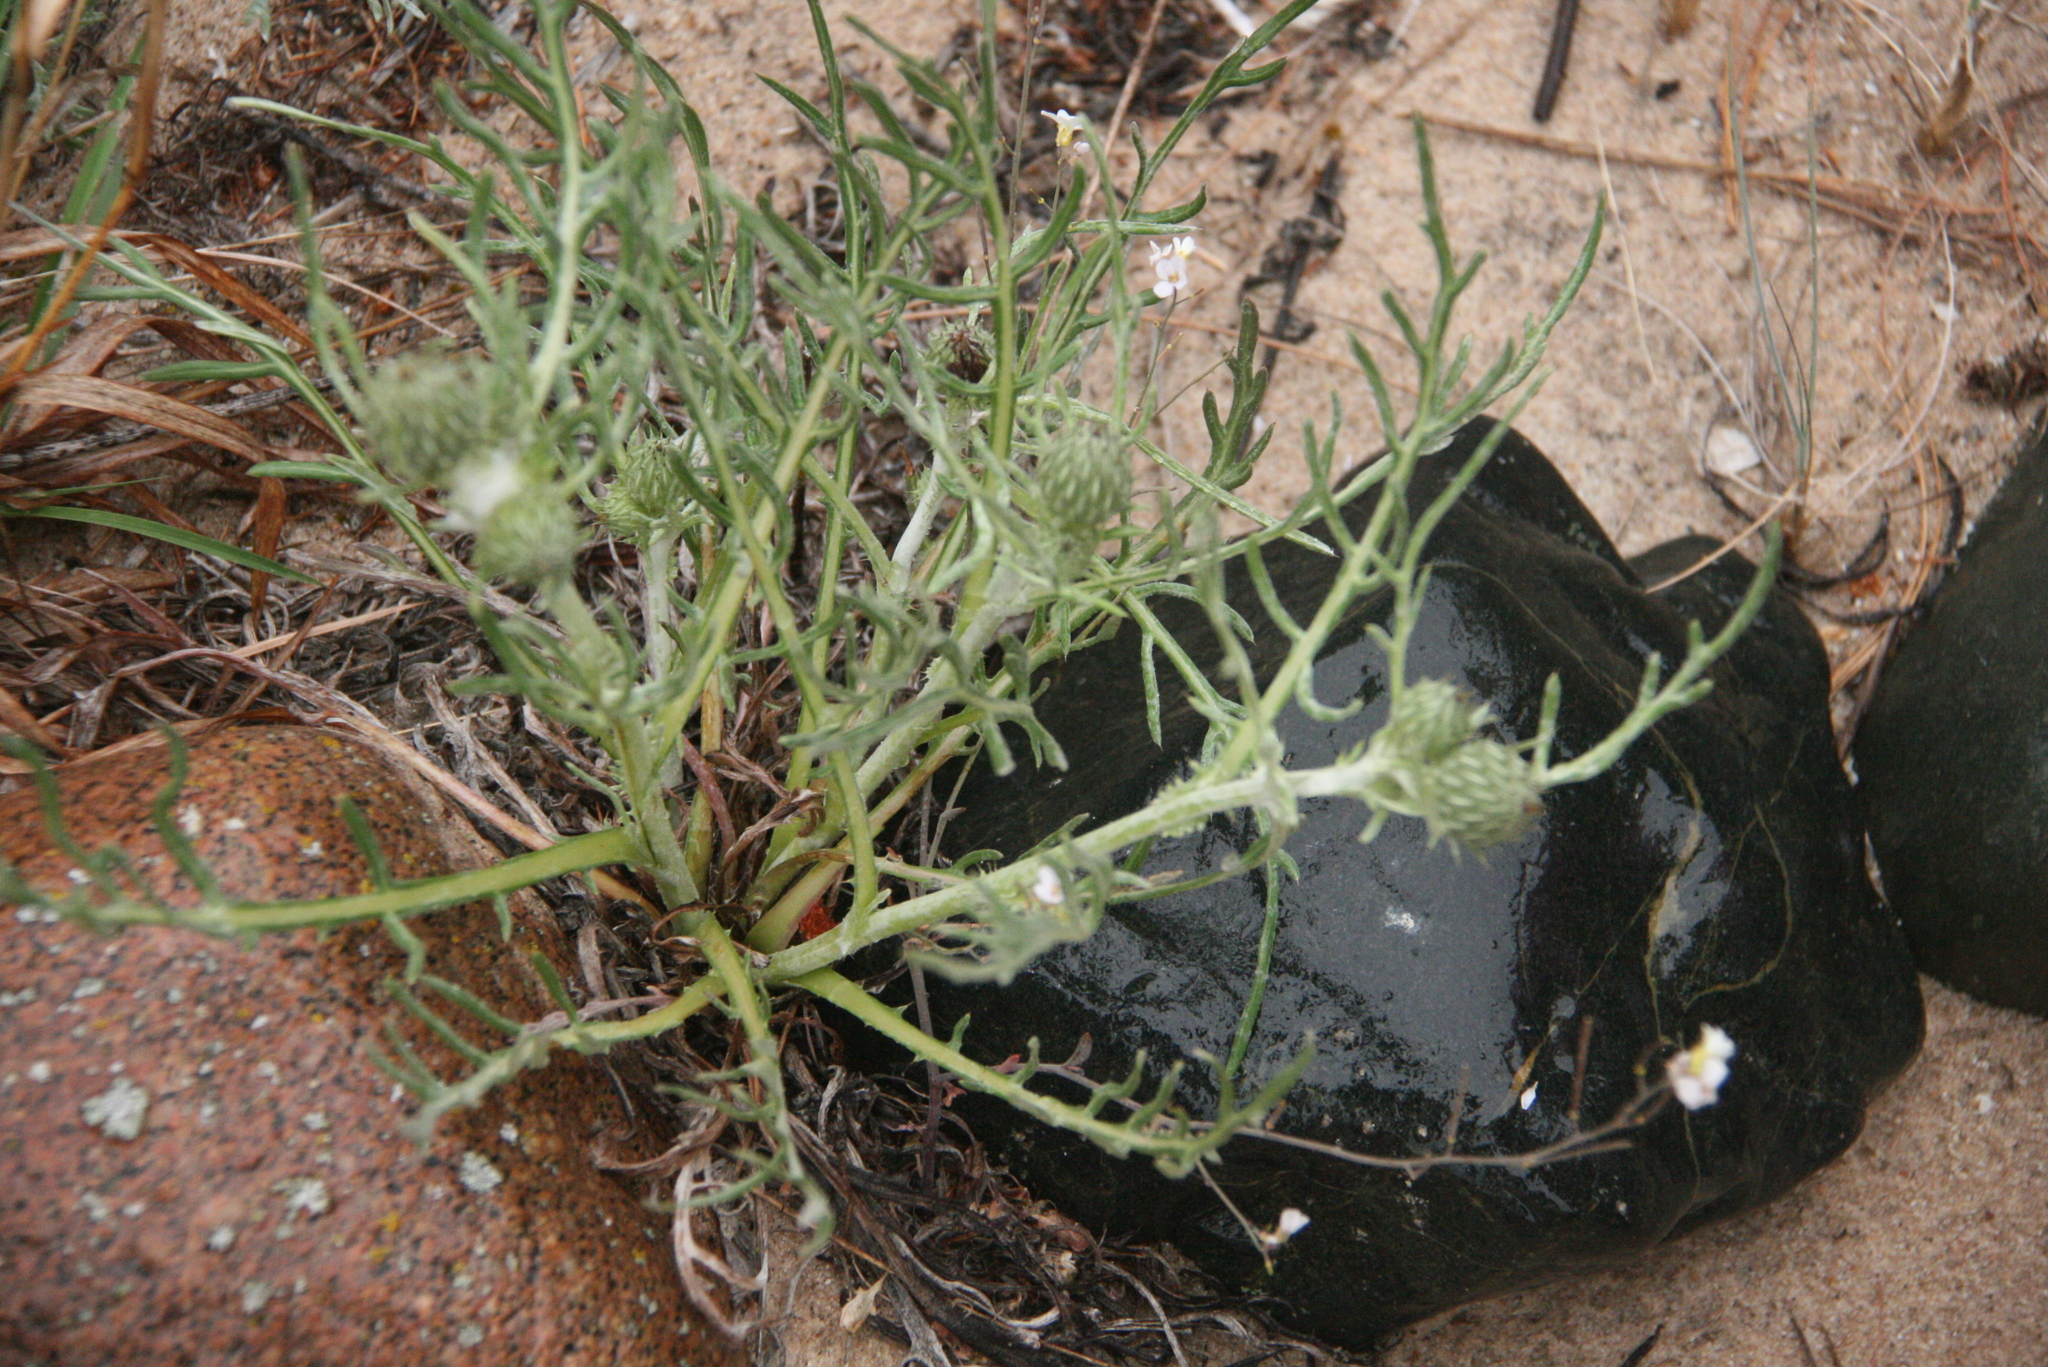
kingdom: Plantae
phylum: Tracheophyta
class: Magnoliopsida
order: Asterales
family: Asteraceae
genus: Cirsium
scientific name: Cirsium pitcheri
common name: Dune thistle
